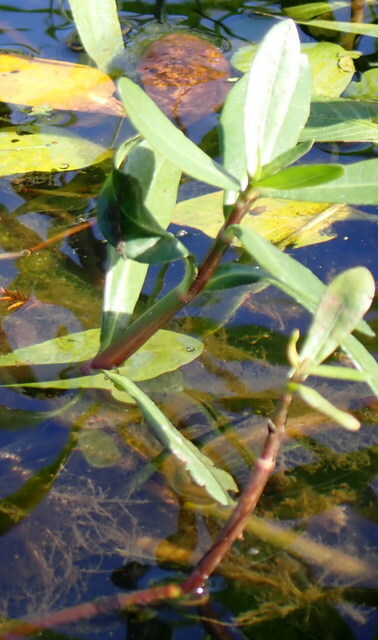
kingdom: Plantae
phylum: Tracheophyta
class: Magnoliopsida
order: Caryophyllales
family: Amaranthaceae
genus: Alternanthera
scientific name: Alternanthera philoxeroides
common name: Alligatorweed
